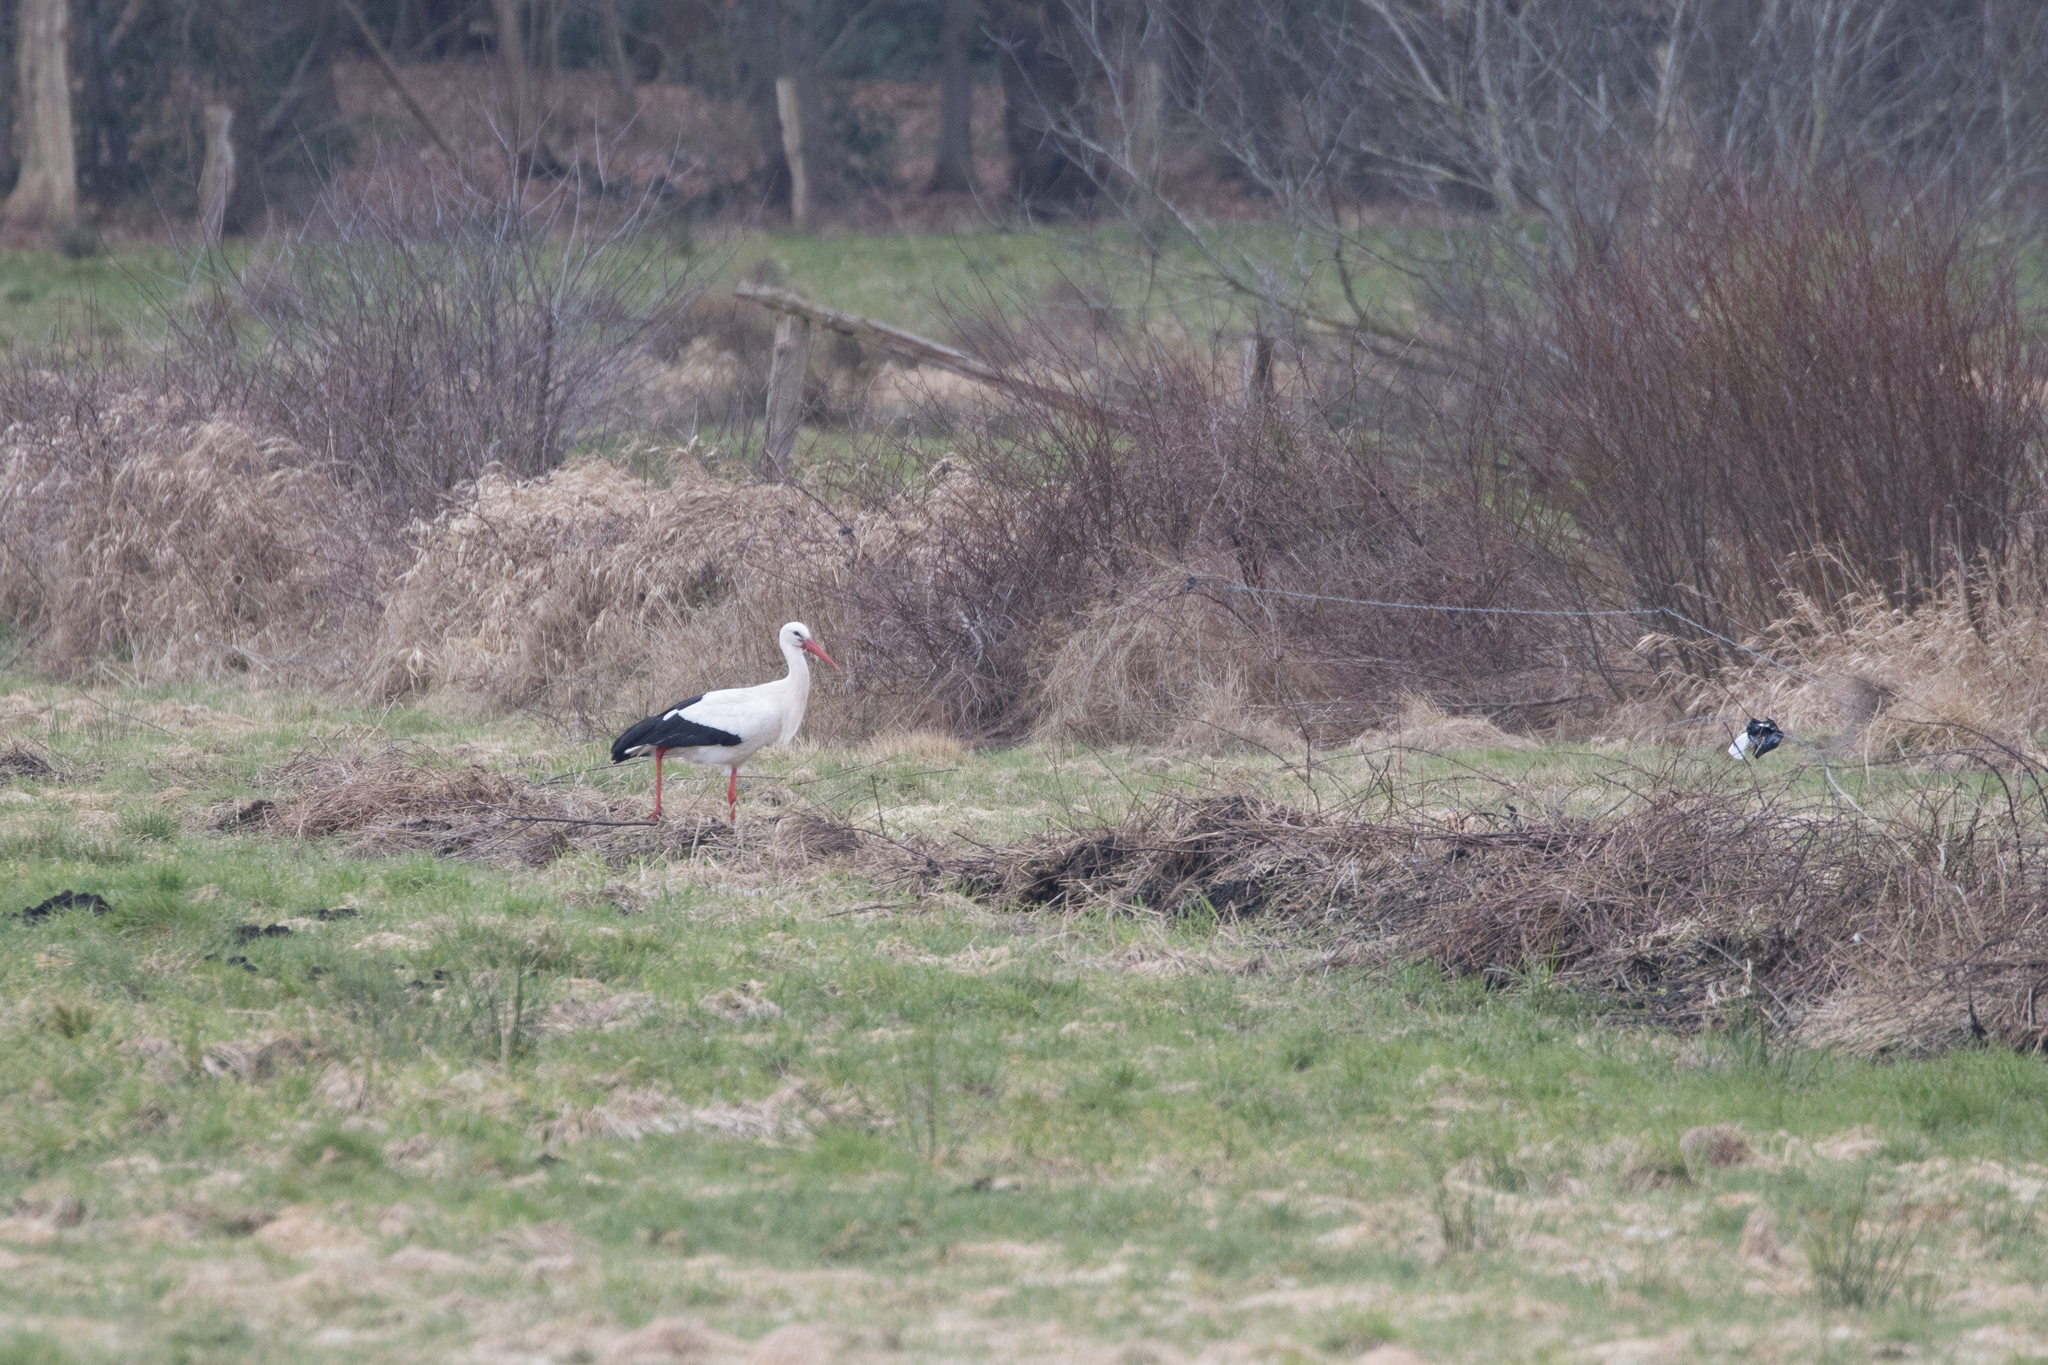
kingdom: Animalia
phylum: Chordata
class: Aves
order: Ciconiiformes
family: Ciconiidae
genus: Ciconia
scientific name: Ciconia ciconia
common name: White stork
